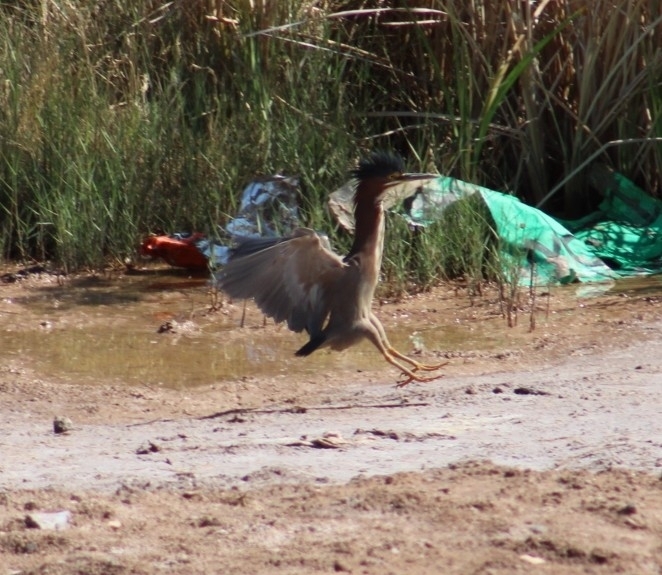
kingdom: Animalia
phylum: Chordata
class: Aves
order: Pelecaniformes
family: Ardeidae
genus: Butorides
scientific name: Butorides virescens
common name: Green heron
